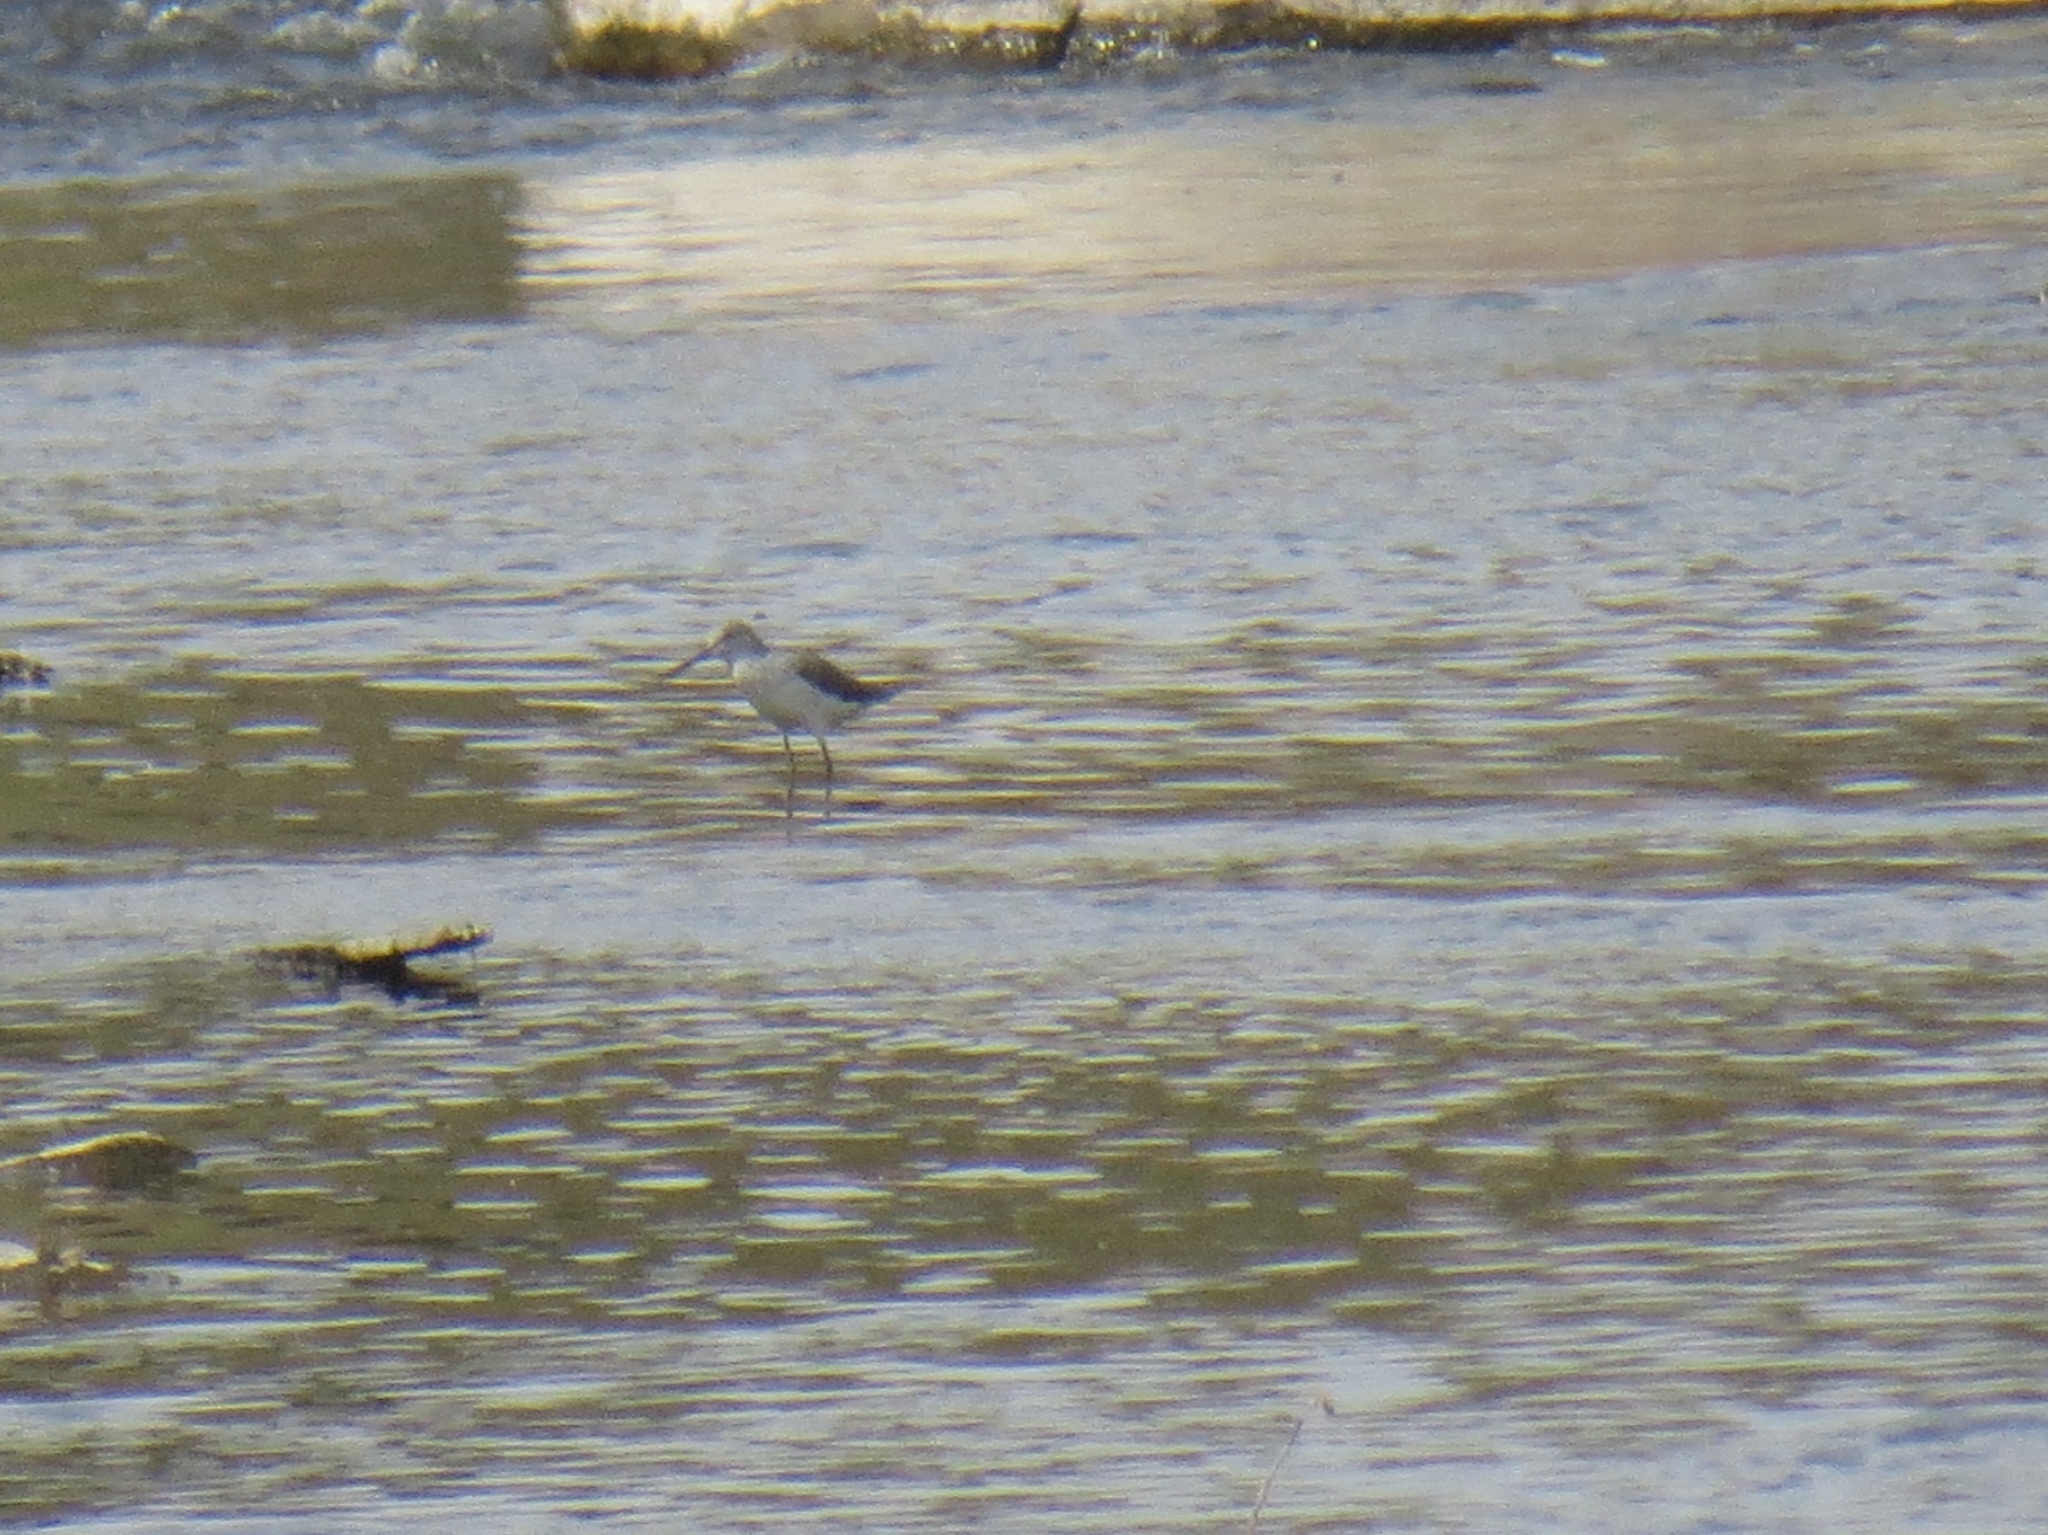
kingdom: Animalia
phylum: Chordata
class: Aves
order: Charadriiformes
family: Scolopacidae
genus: Tringa
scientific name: Tringa nebularia
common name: Common greenshank
